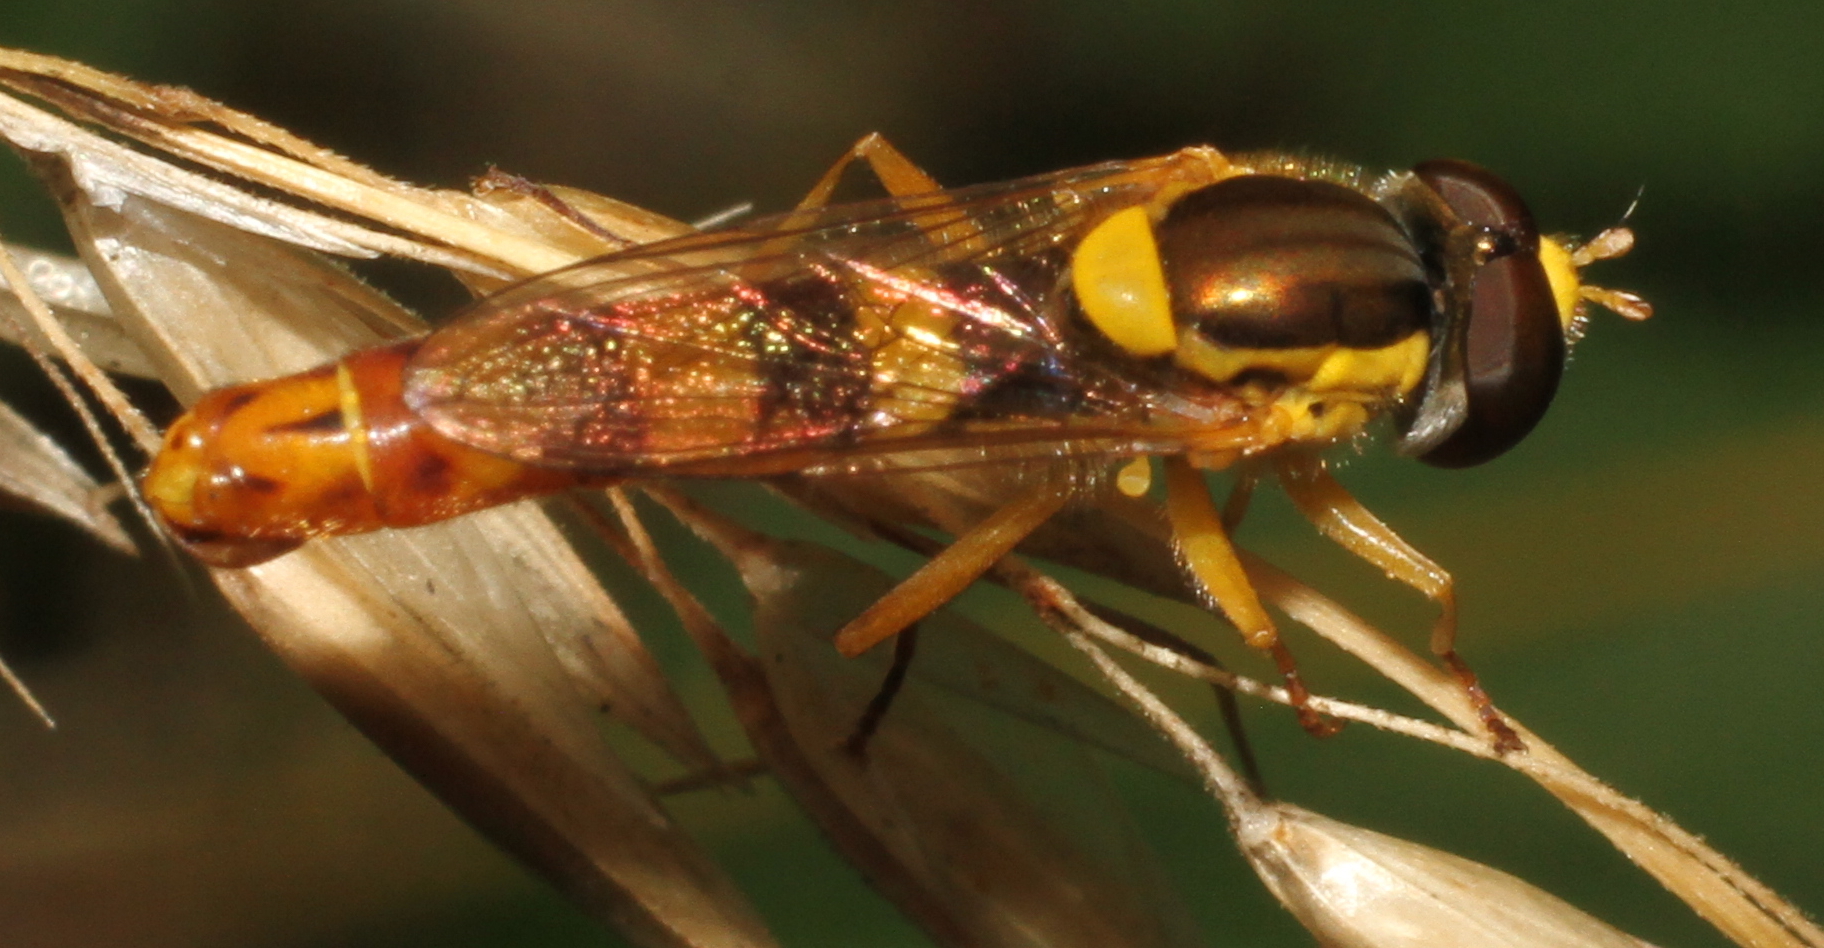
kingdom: Animalia
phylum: Arthropoda
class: Insecta
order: Diptera
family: Syrphidae
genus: Sphaerophoria
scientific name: Sphaerophoria scripta
